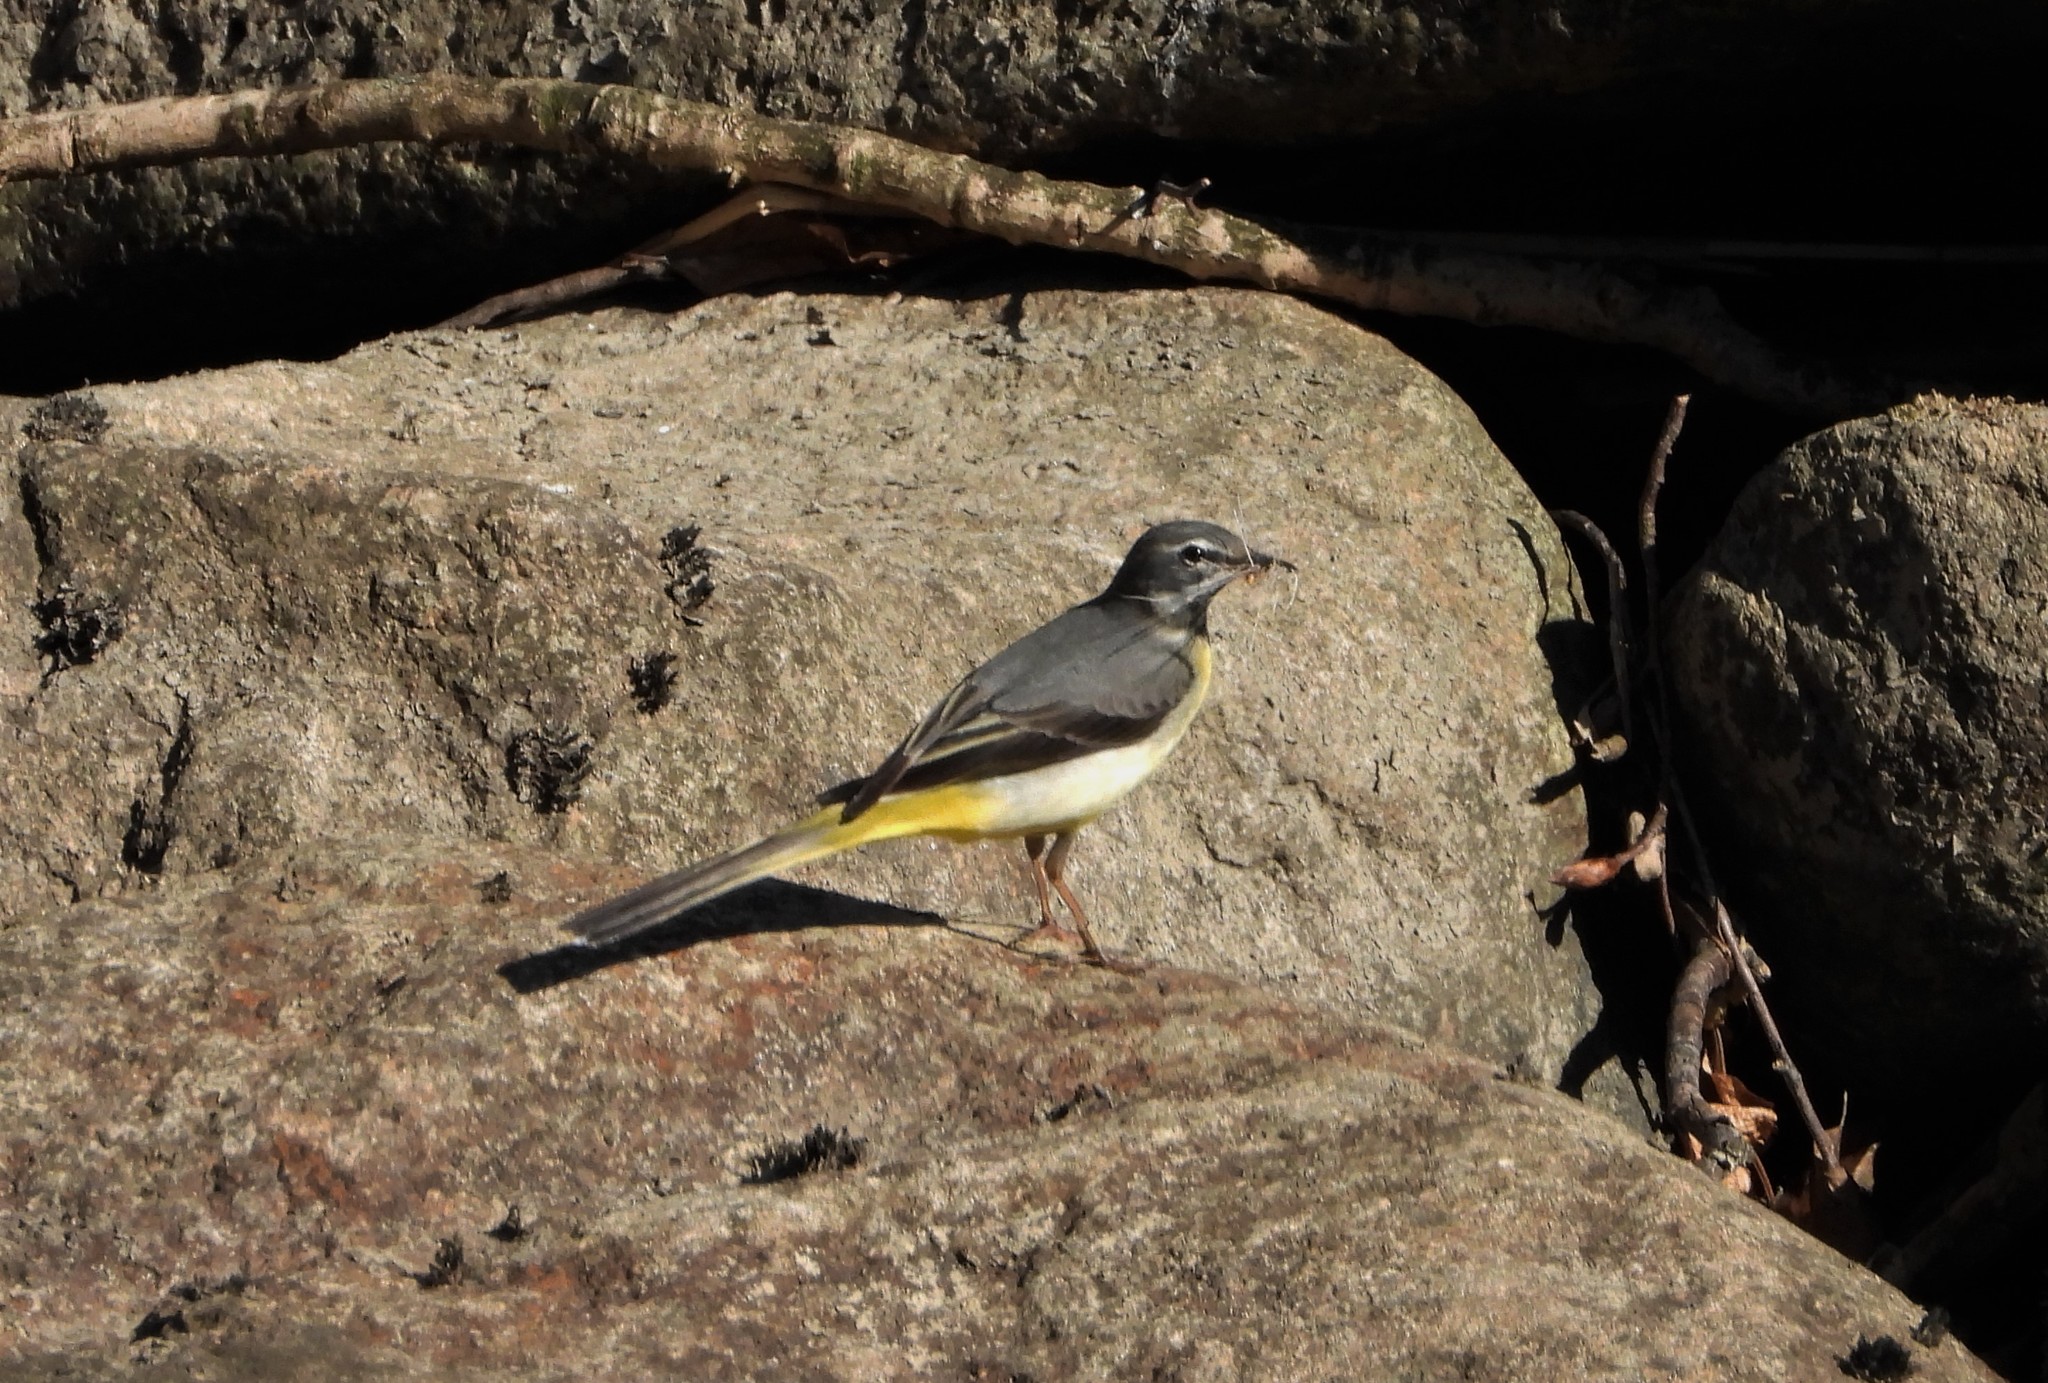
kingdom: Animalia
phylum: Chordata
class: Aves
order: Passeriformes
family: Motacillidae
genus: Motacilla
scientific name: Motacilla cinerea
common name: Grey wagtail
